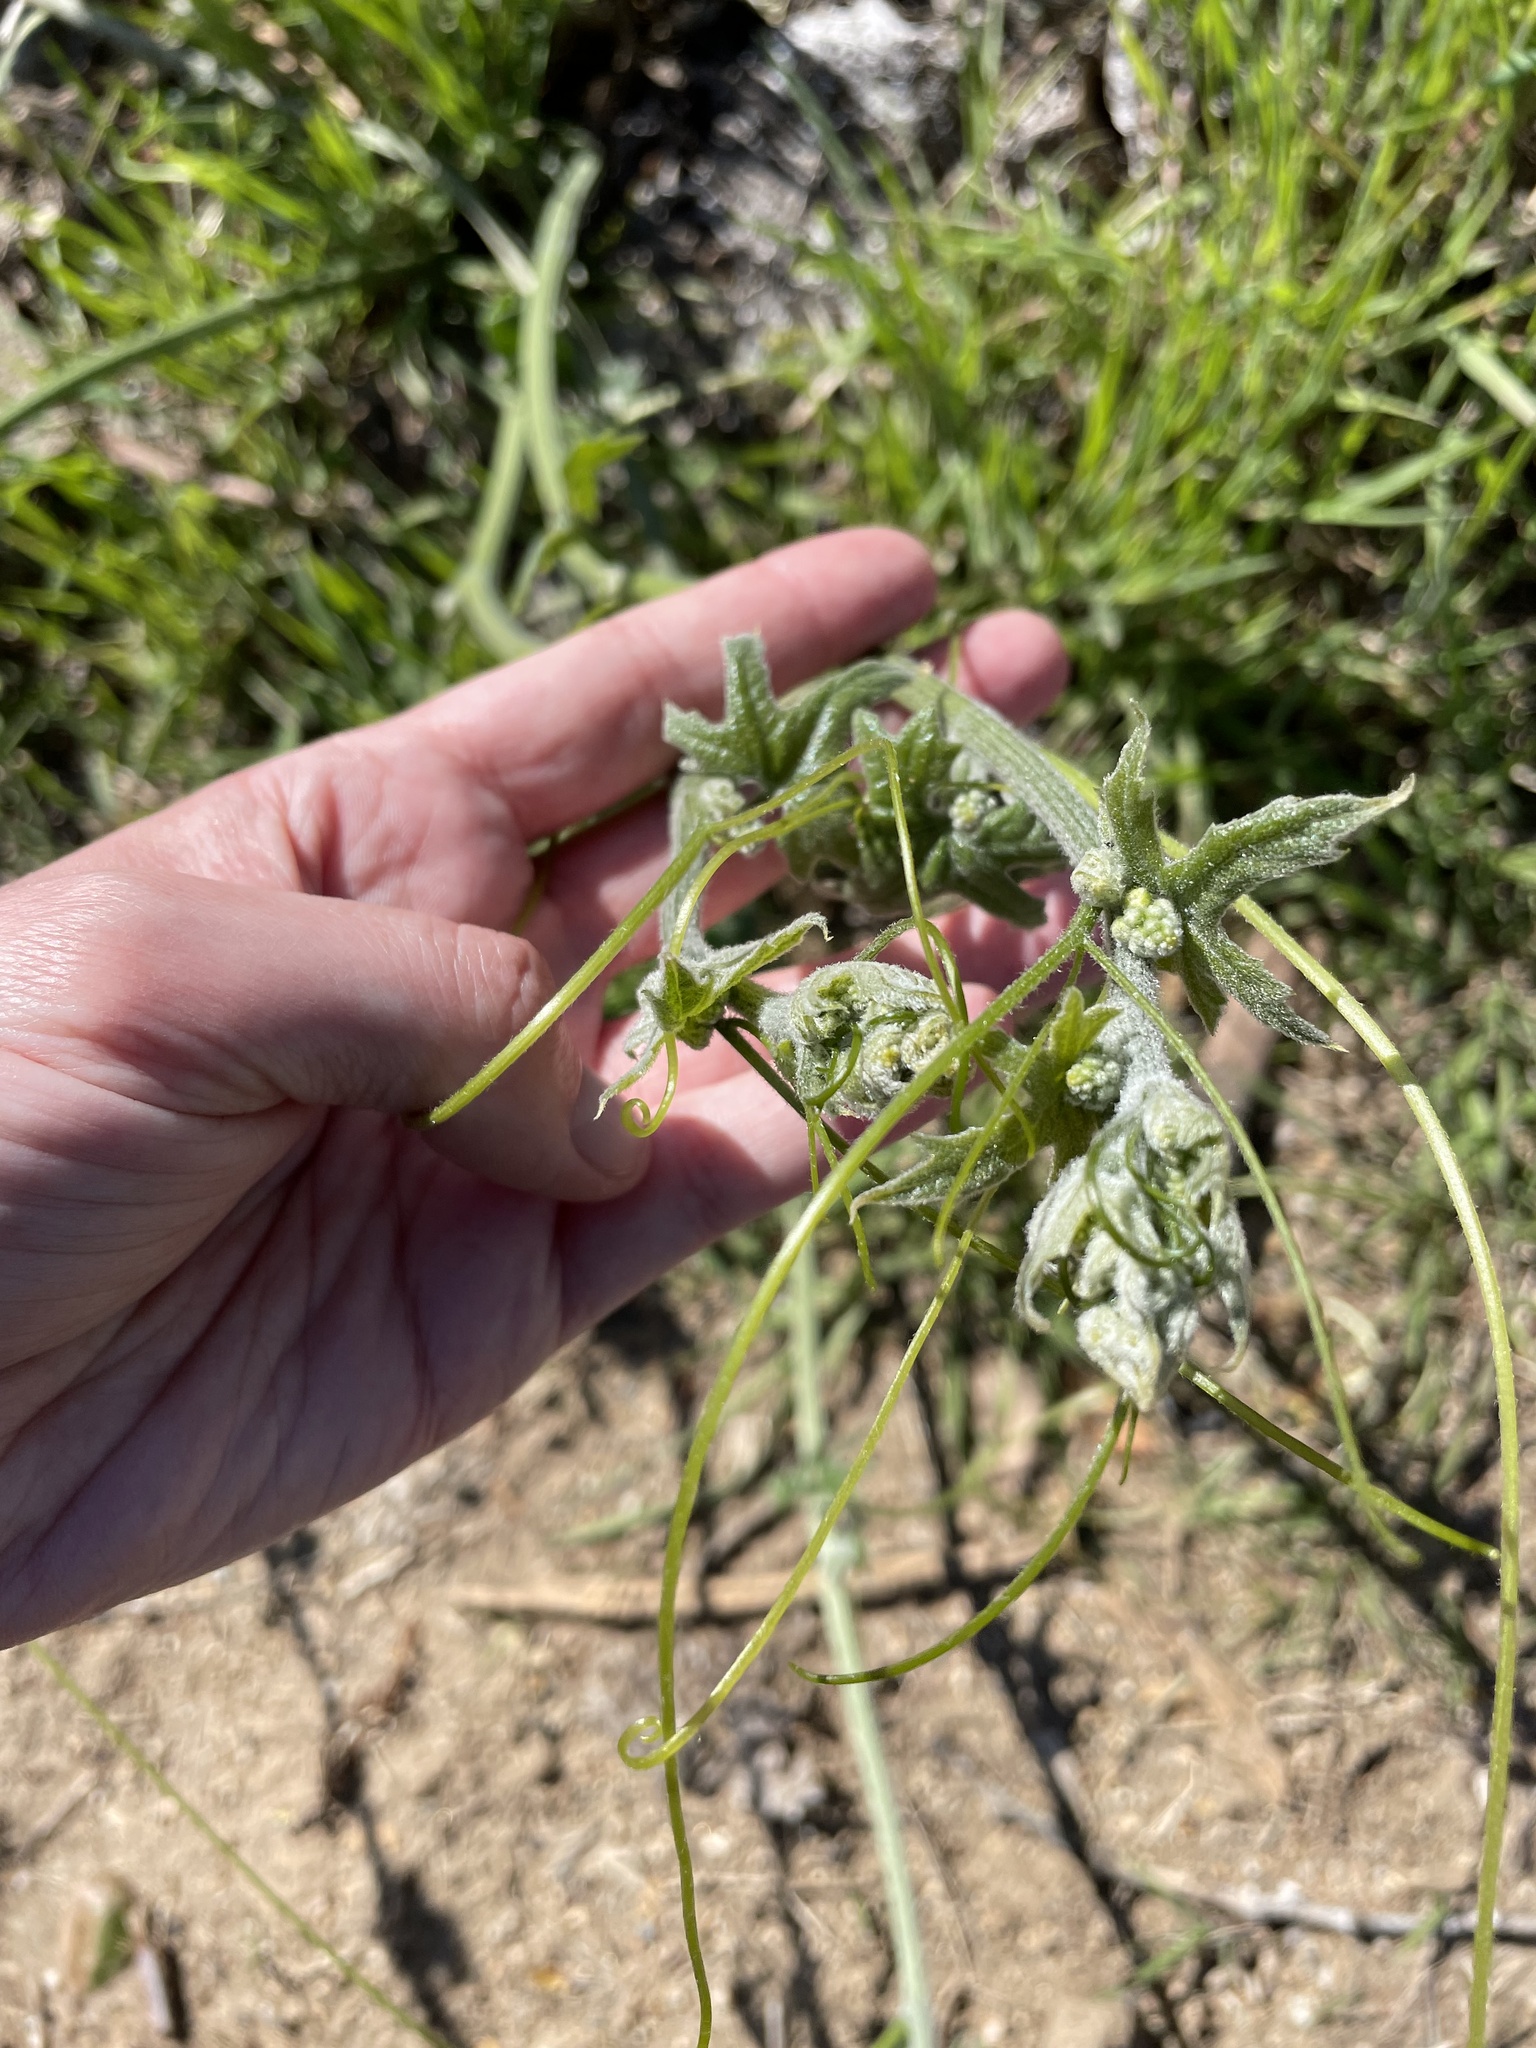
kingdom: Plantae
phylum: Tracheophyta
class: Magnoliopsida
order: Cucurbitales
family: Cucurbitaceae
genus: Marah
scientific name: Marah fabacea
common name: California manroot
